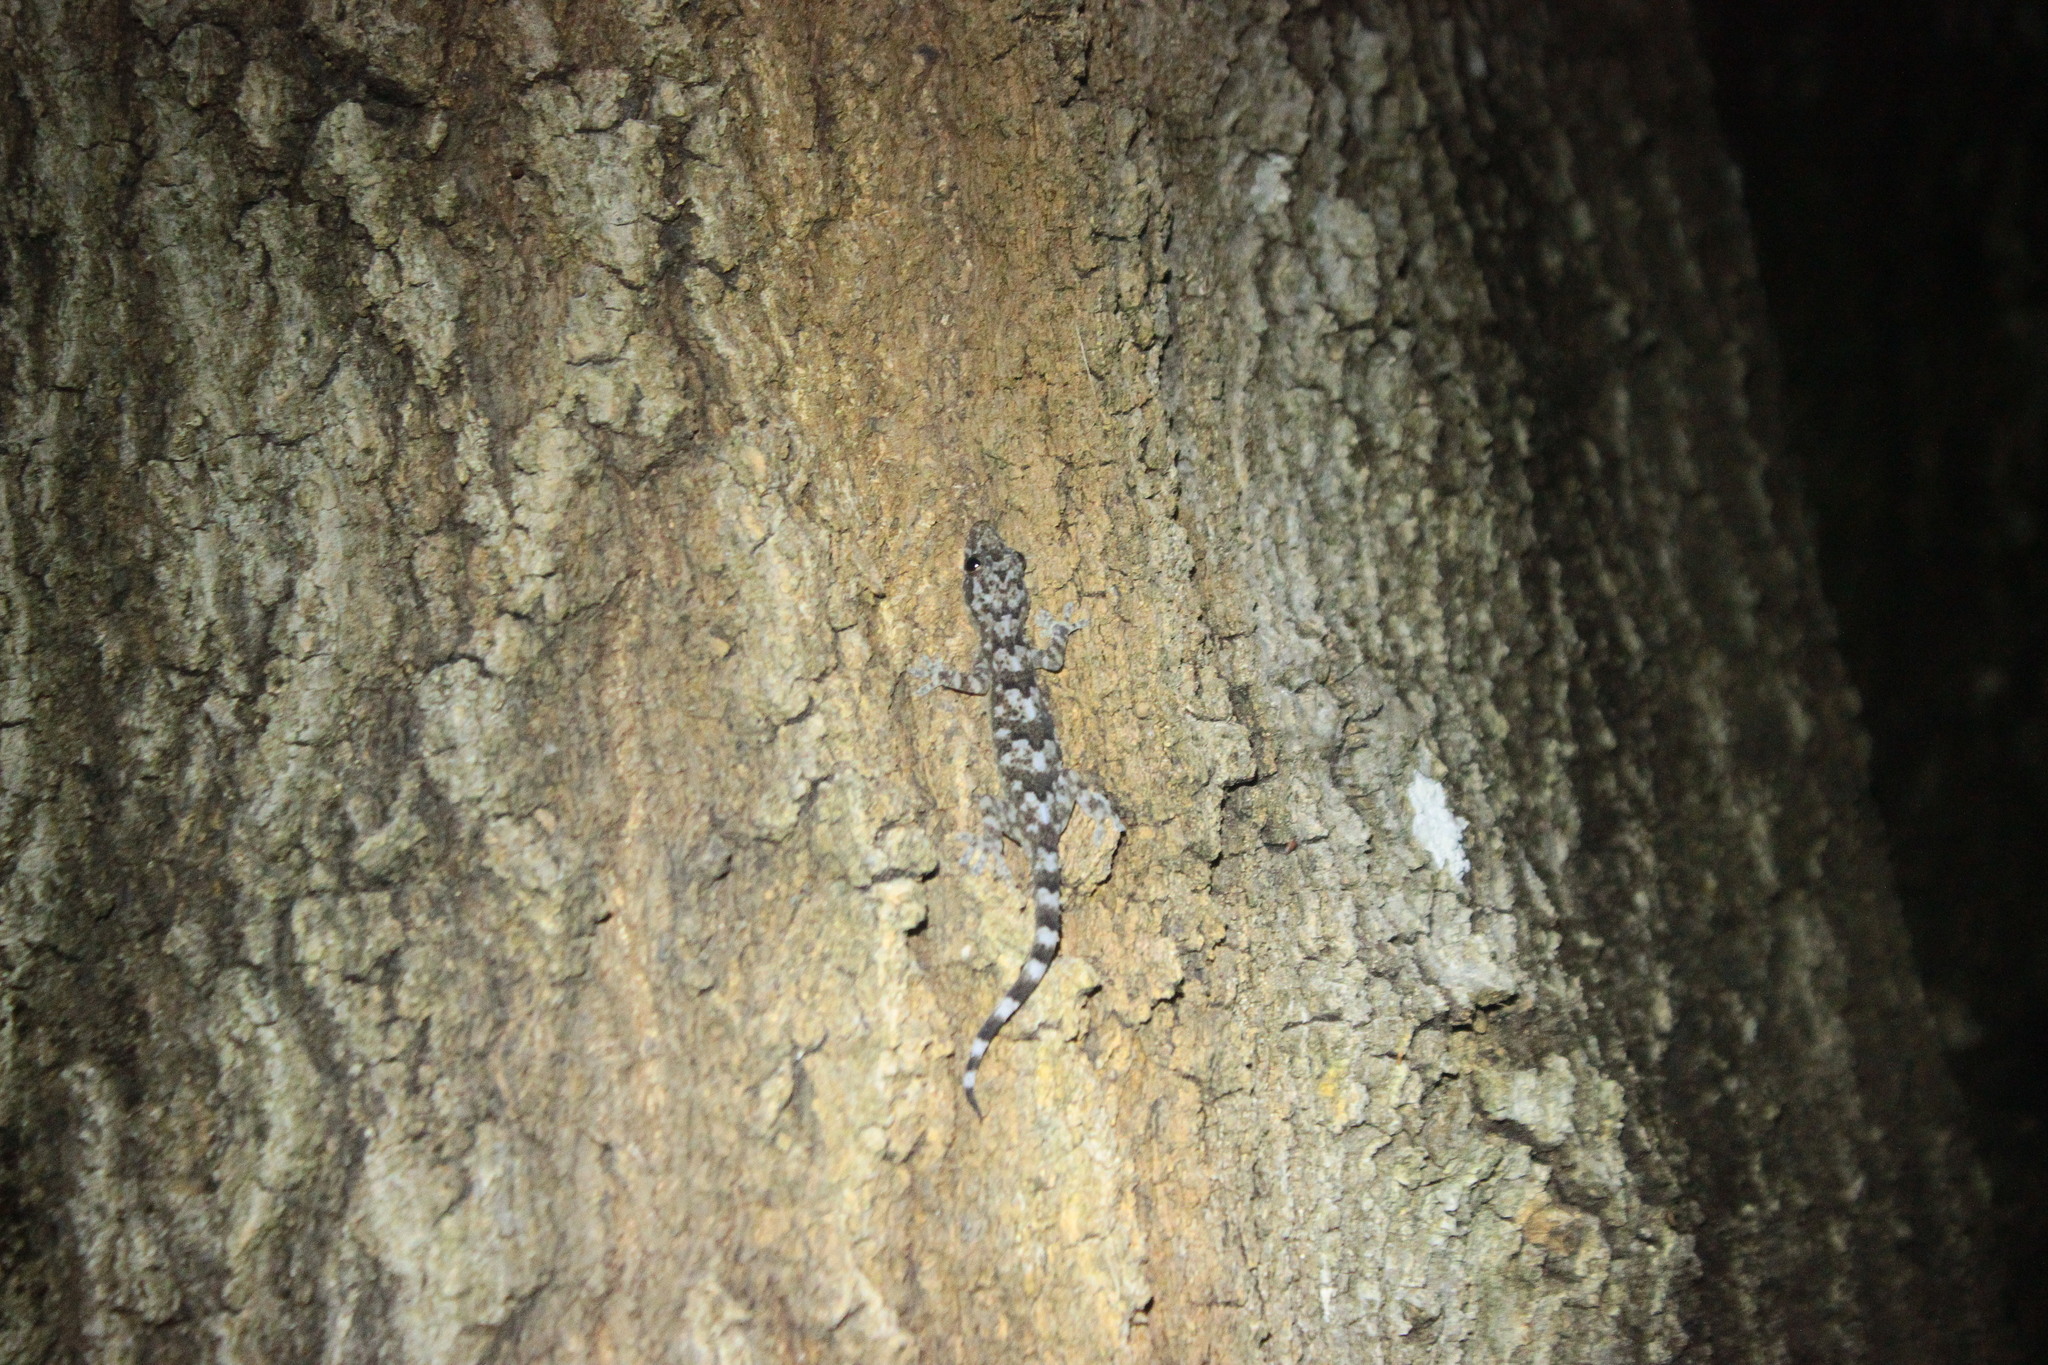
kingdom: Animalia
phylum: Chordata
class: Squamata
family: Gekkonidae
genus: Hemidactylus
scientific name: Hemidactylus mabouia
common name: House gecko
